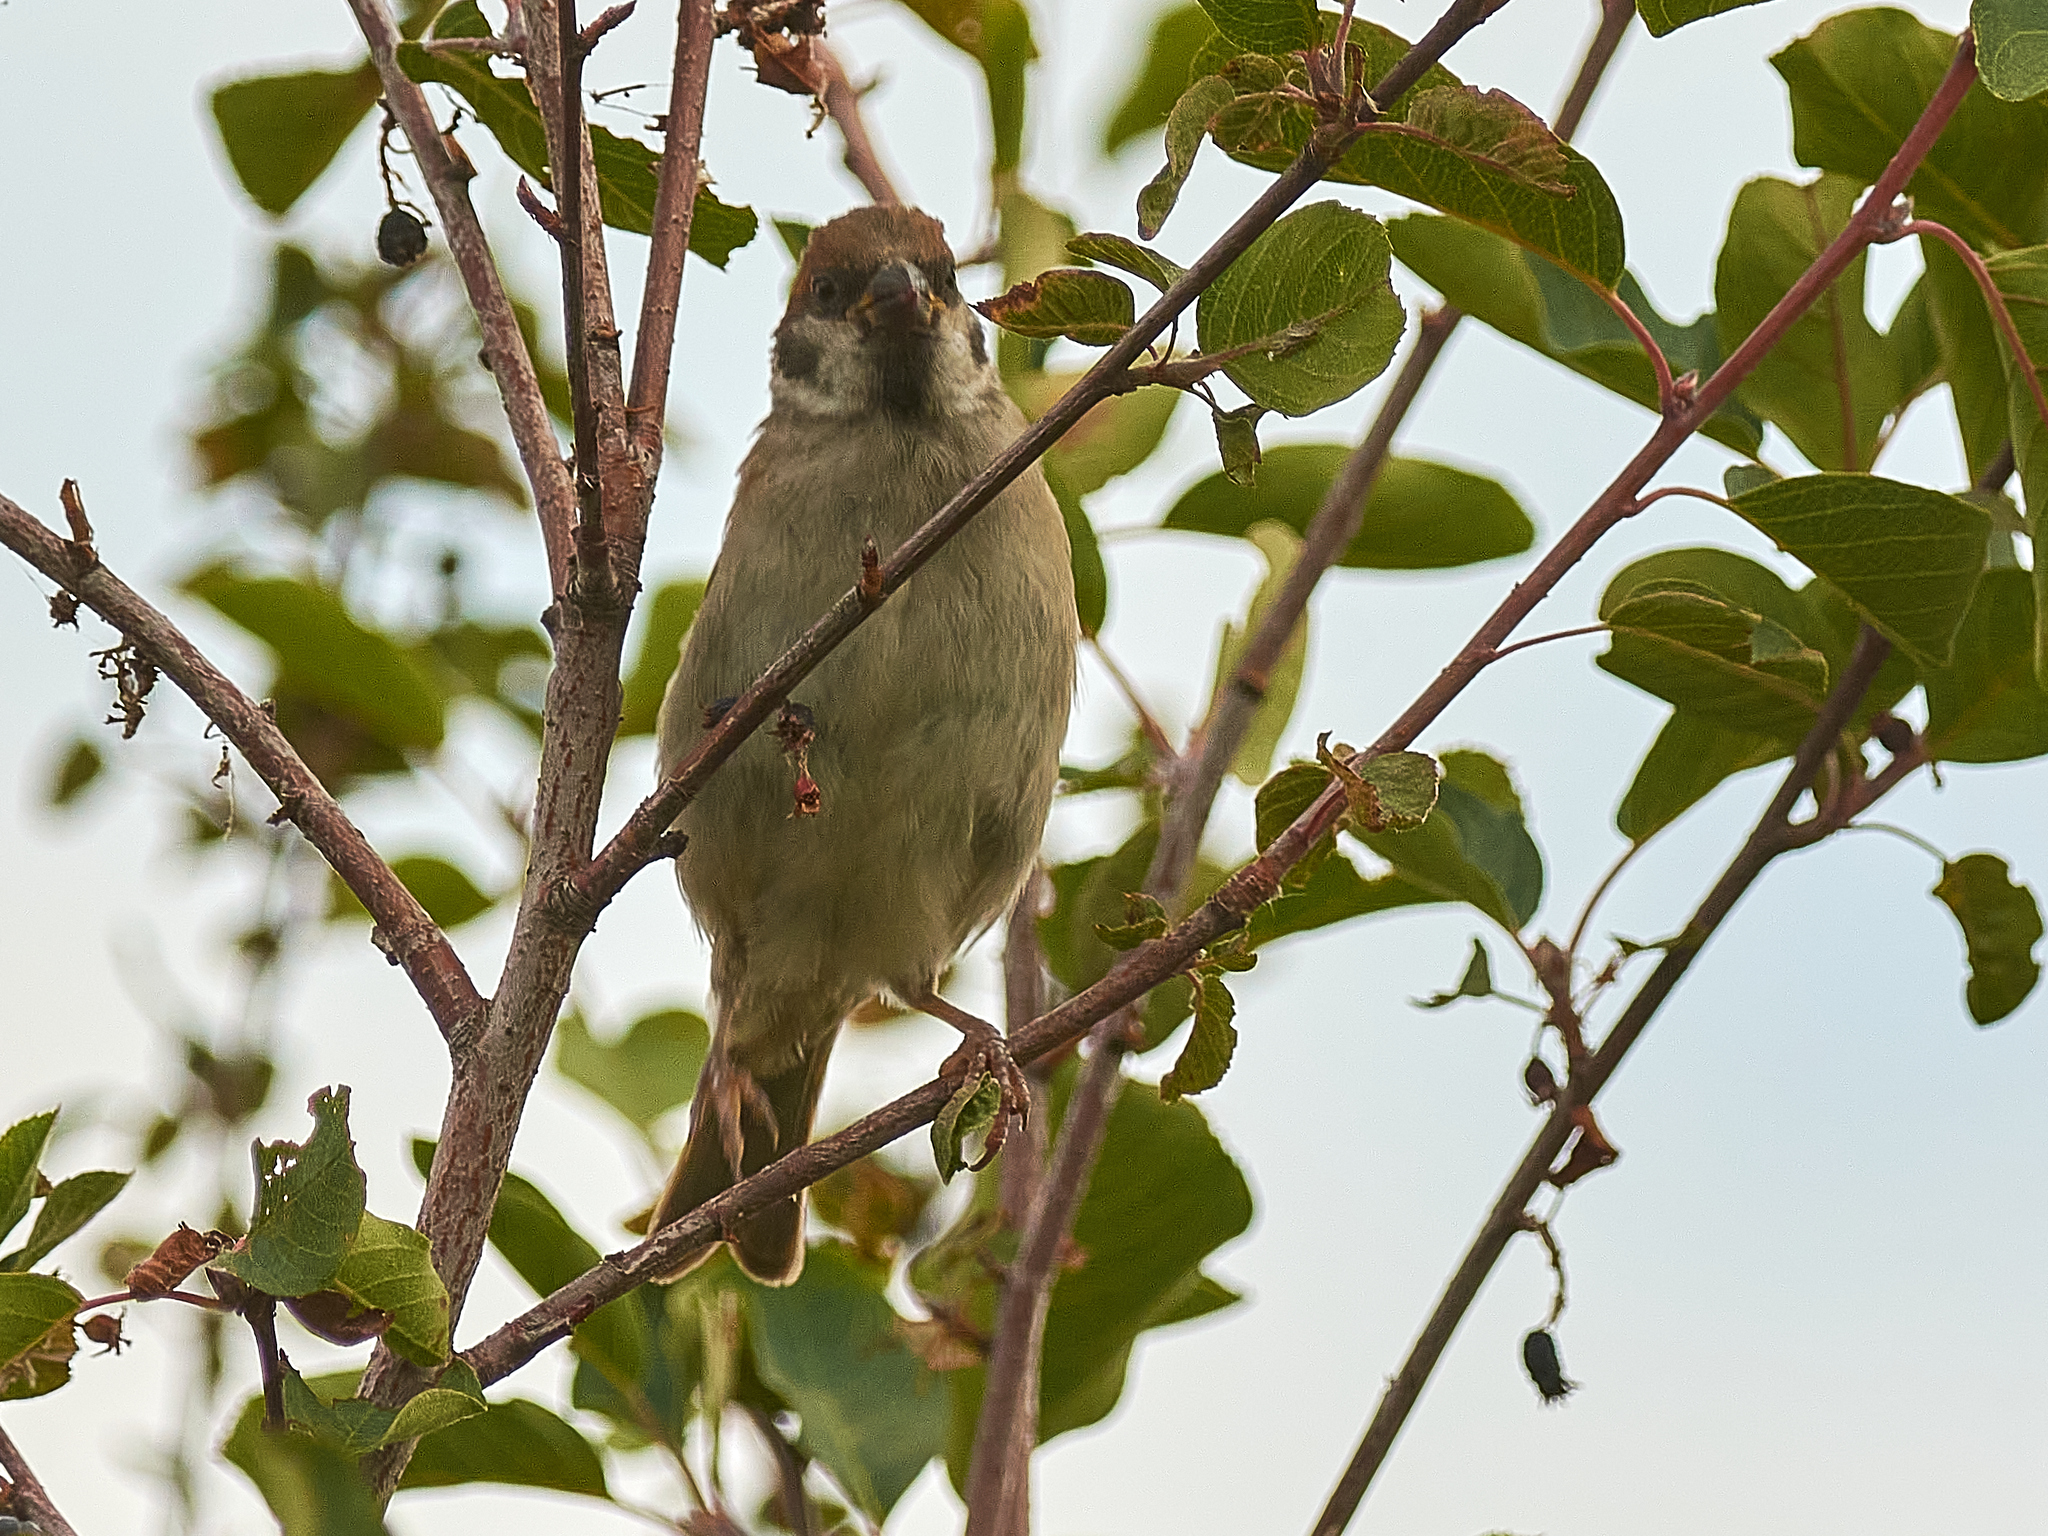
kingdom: Animalia
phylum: Chordata
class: Aves
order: Passeriformes
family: Passeridae
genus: Passer
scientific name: Passer montanus
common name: Eurasian tree sparrow
